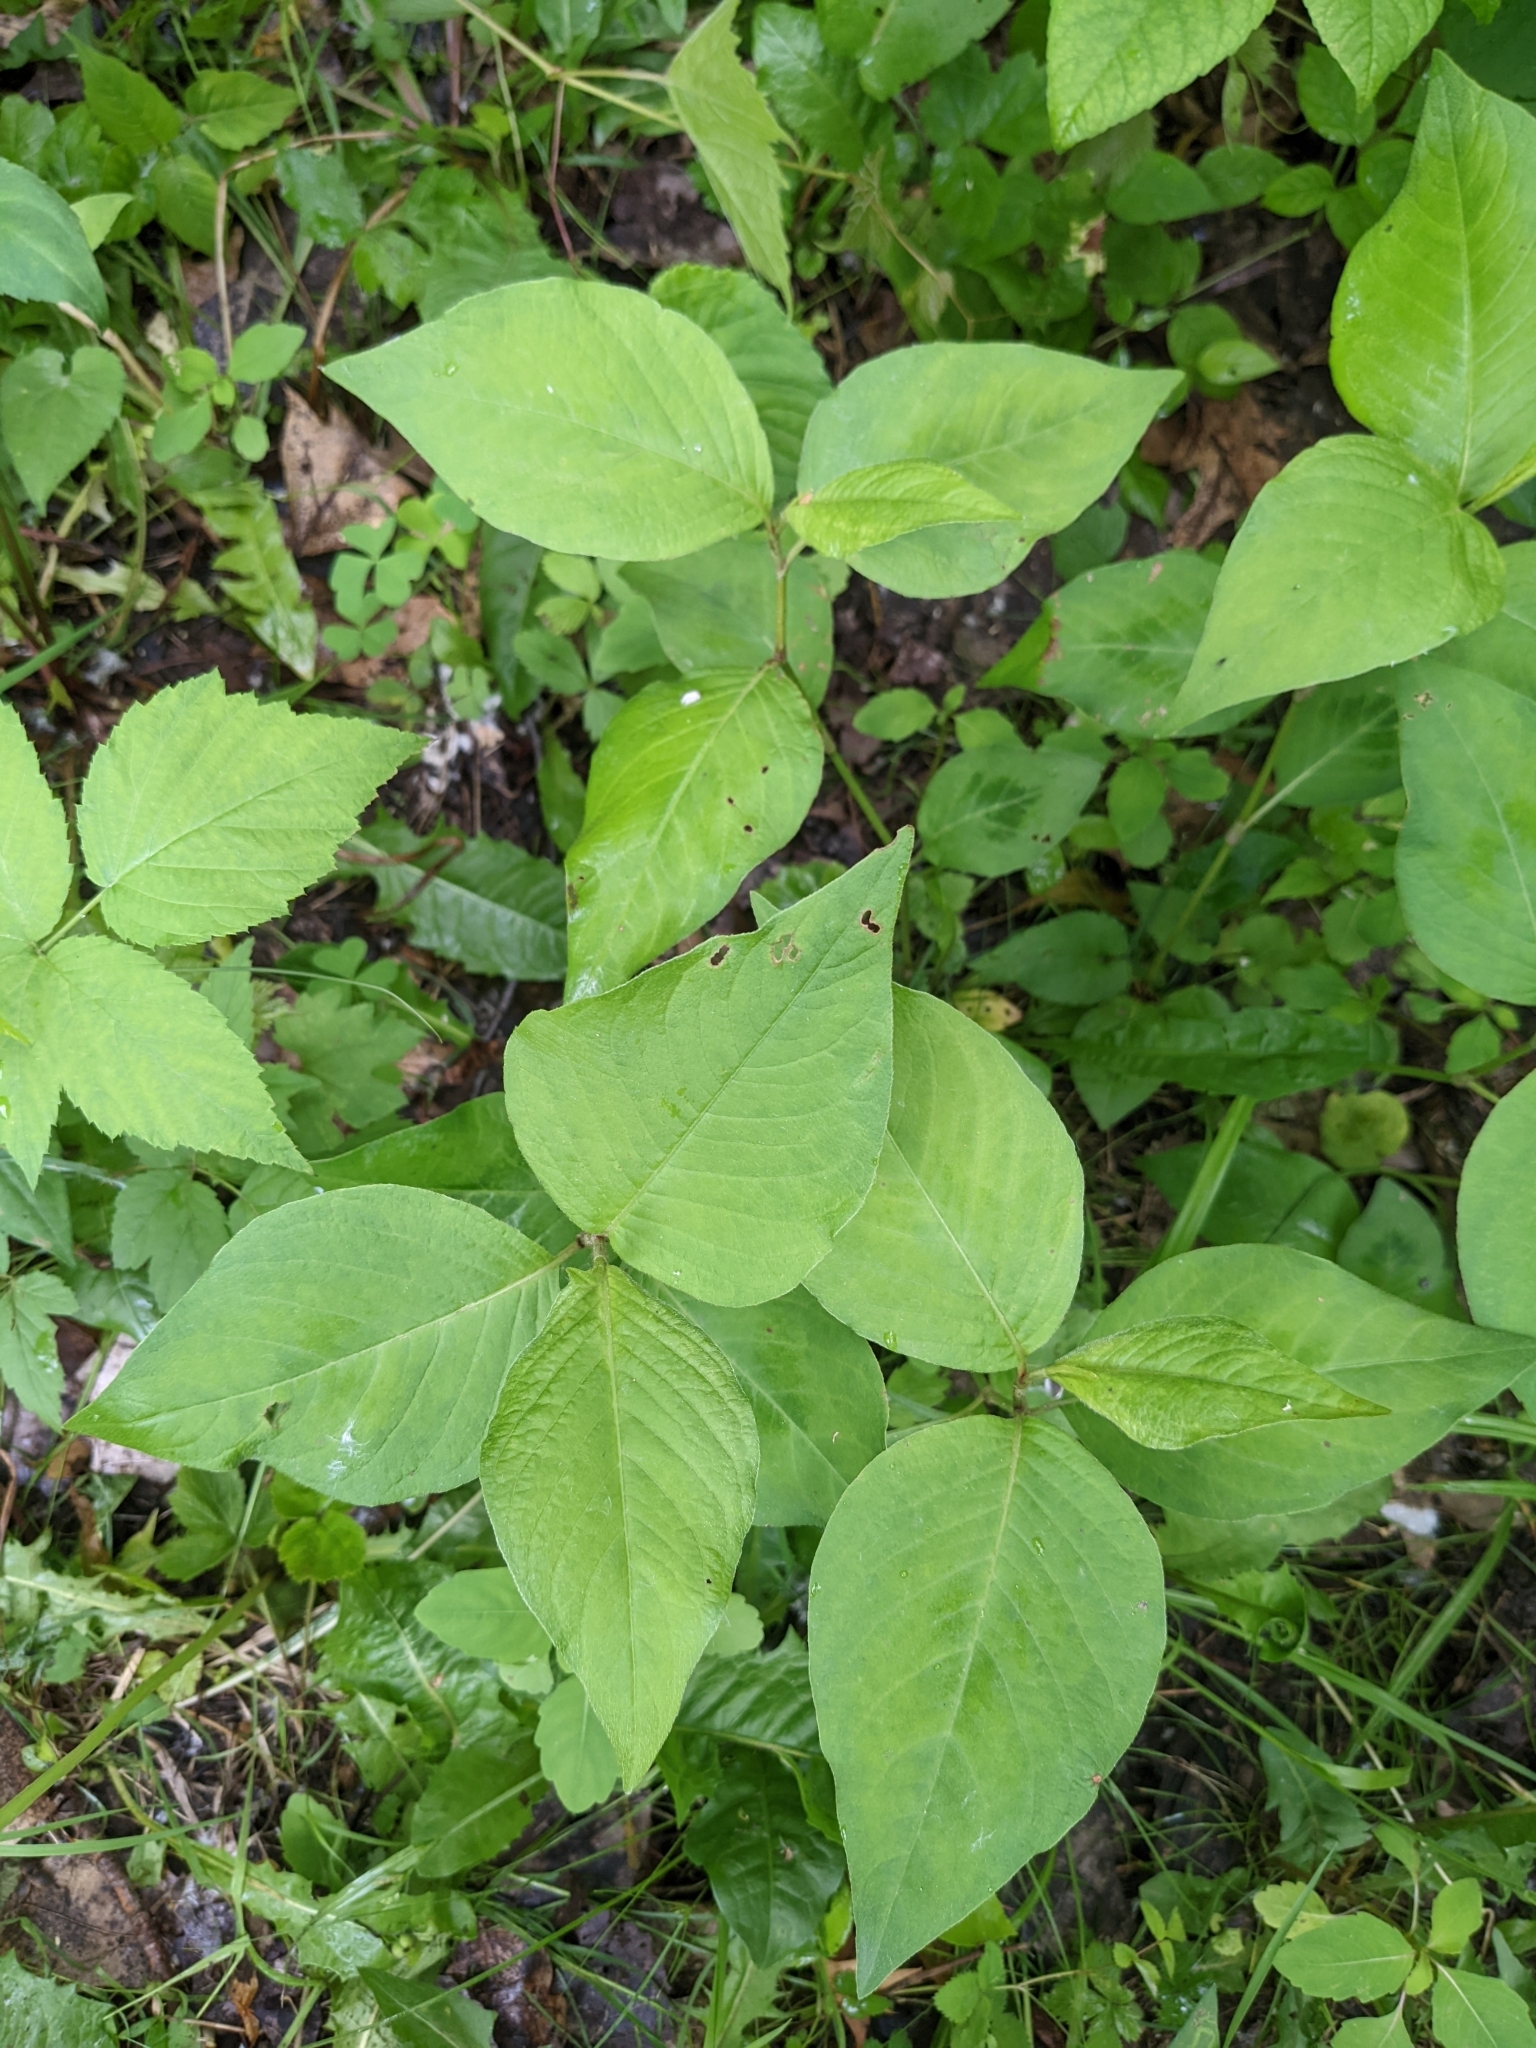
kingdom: Plantae
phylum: Tracheophyta
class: Magnoliopsida
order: Caryophyllales
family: Polygonaceae
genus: Persicaria
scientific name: Persicaria virginiana
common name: Jumpseed
